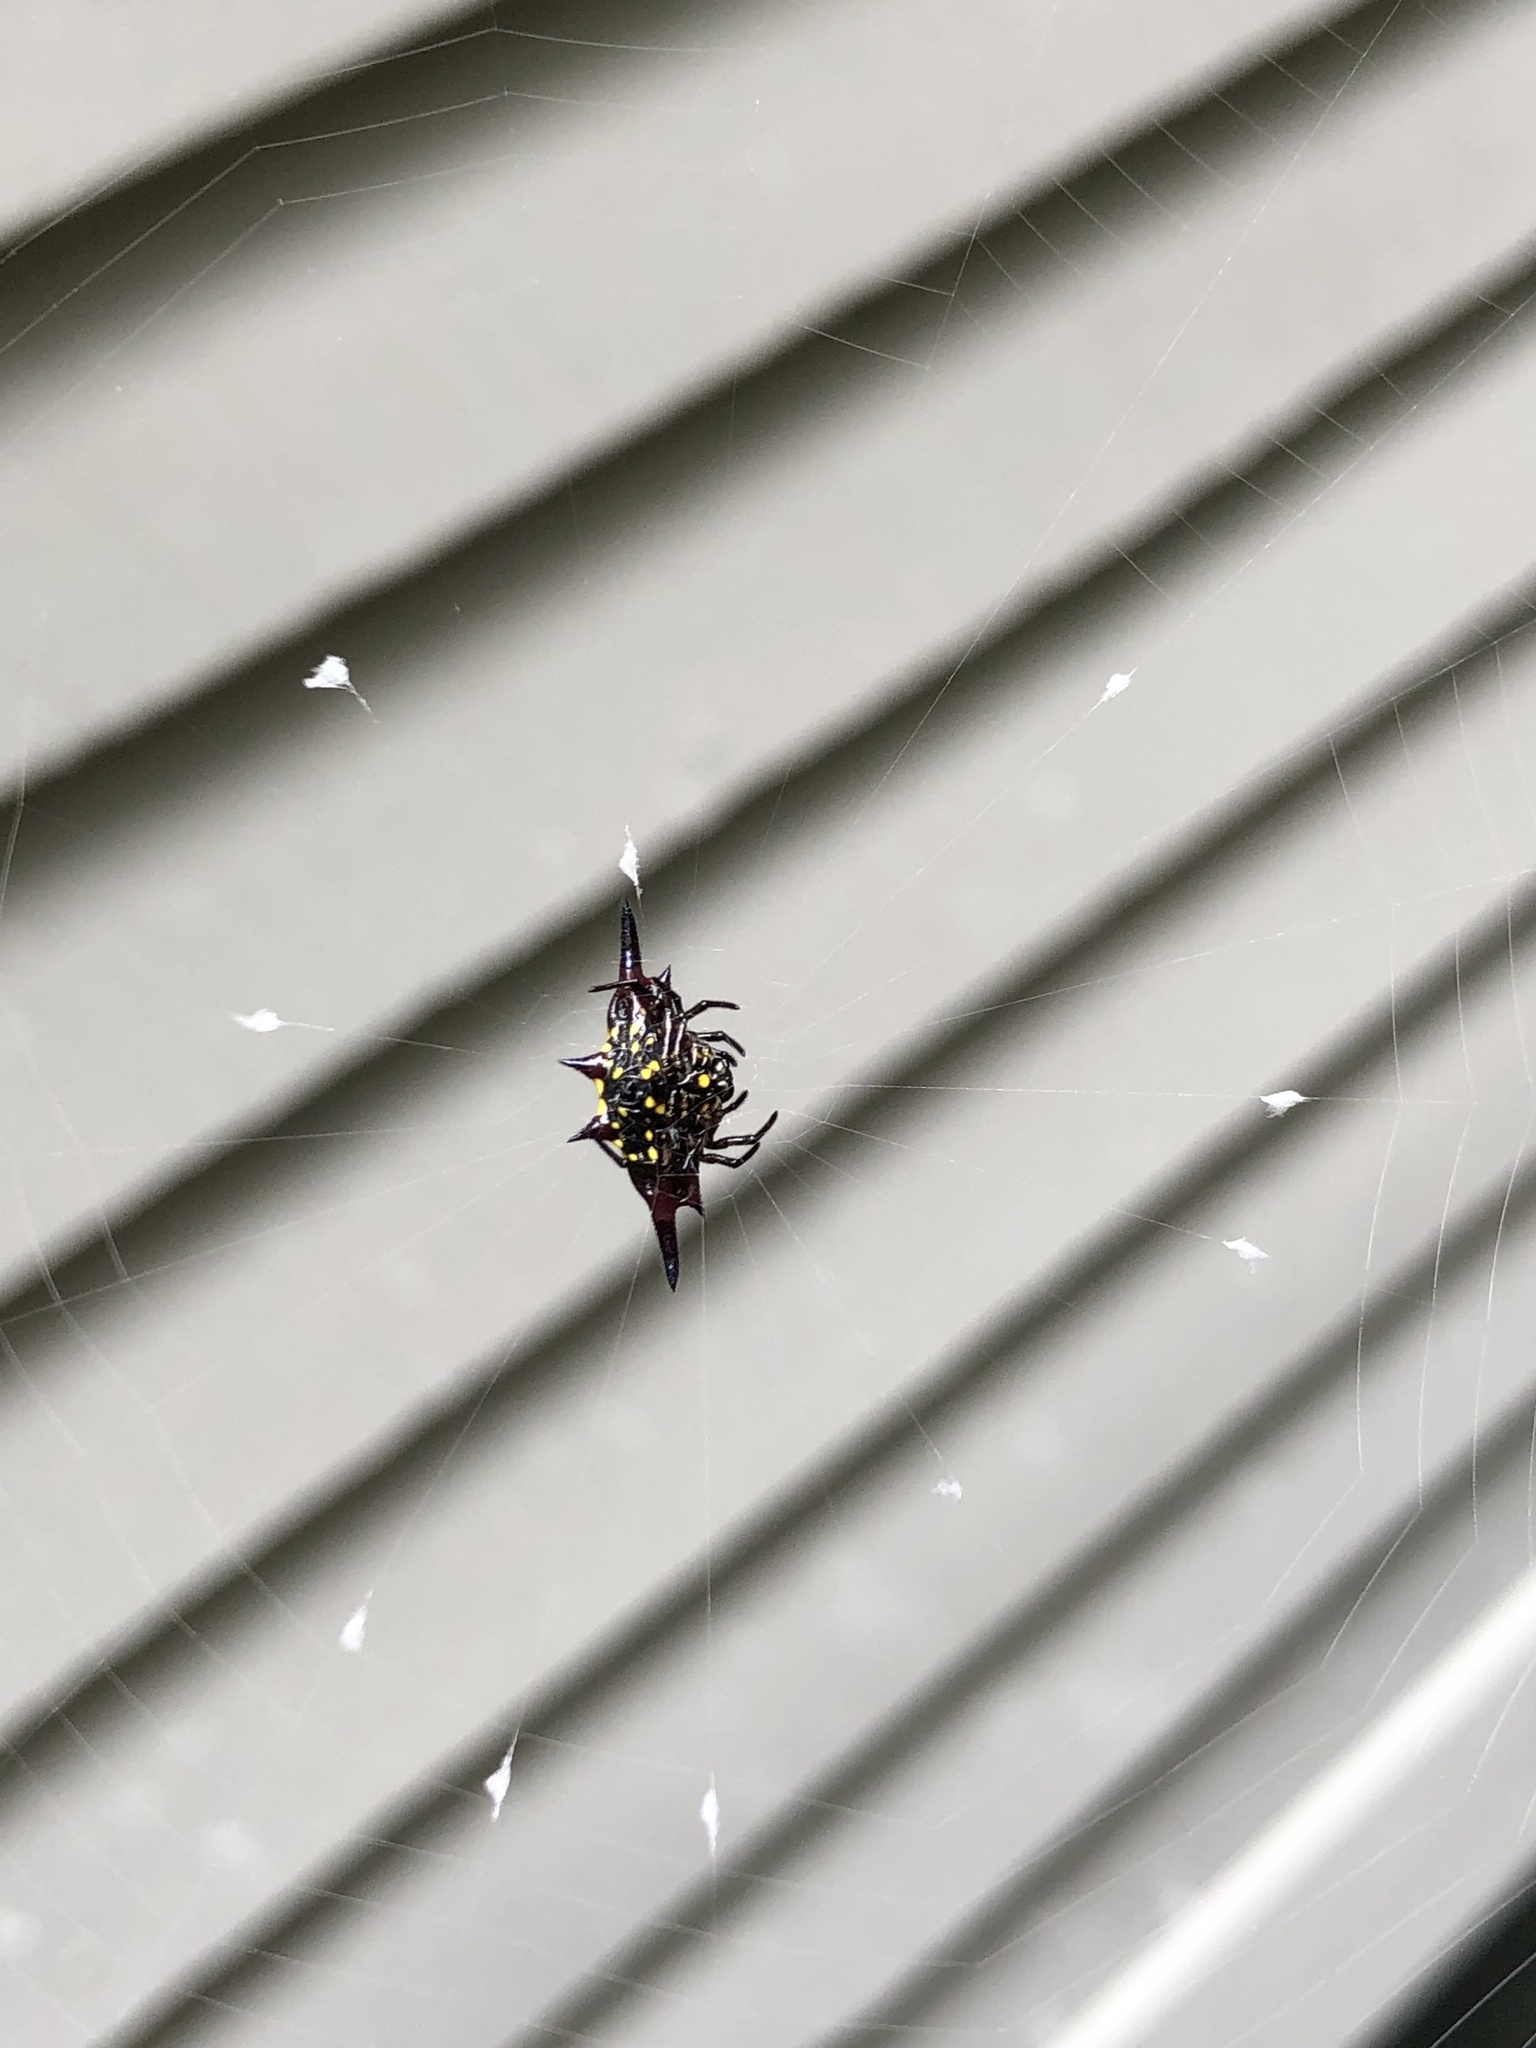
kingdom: Animalia
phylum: Arthropoda
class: Arachnida
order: Araneae
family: Araneidae
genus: Gasteracantha
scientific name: Gasteracantha fornicata
